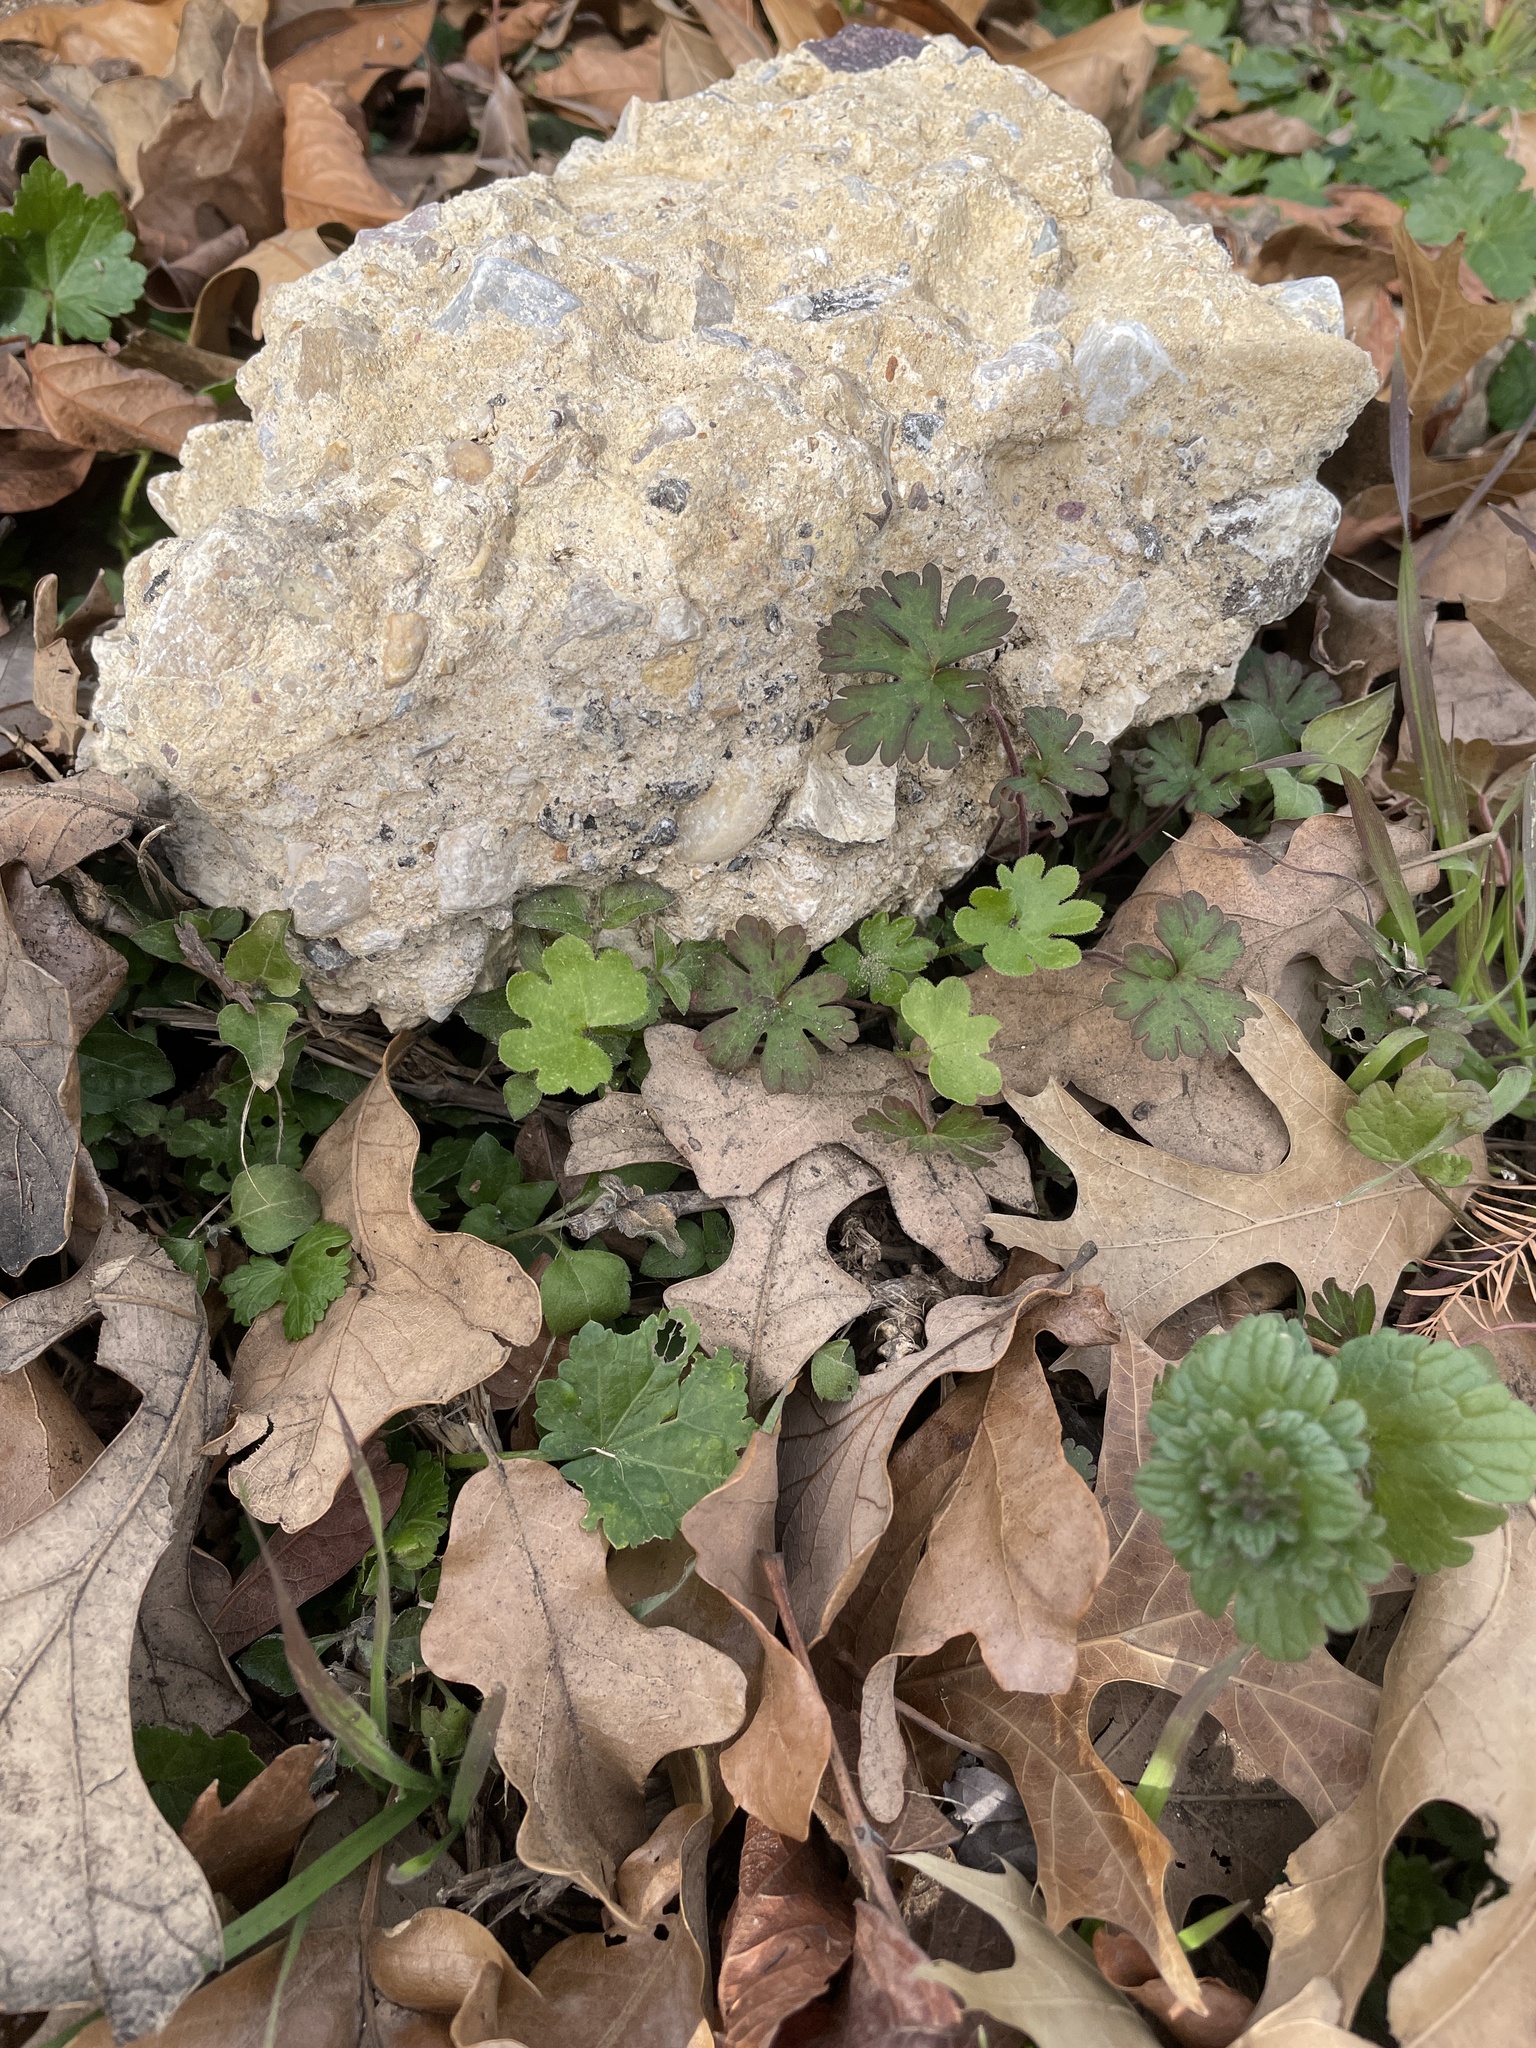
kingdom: Plantae
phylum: Tracheophyta
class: Magnoliopsida
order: Apiales
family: Apiaceae
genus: Bowlesia
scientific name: Bowlesia incana
